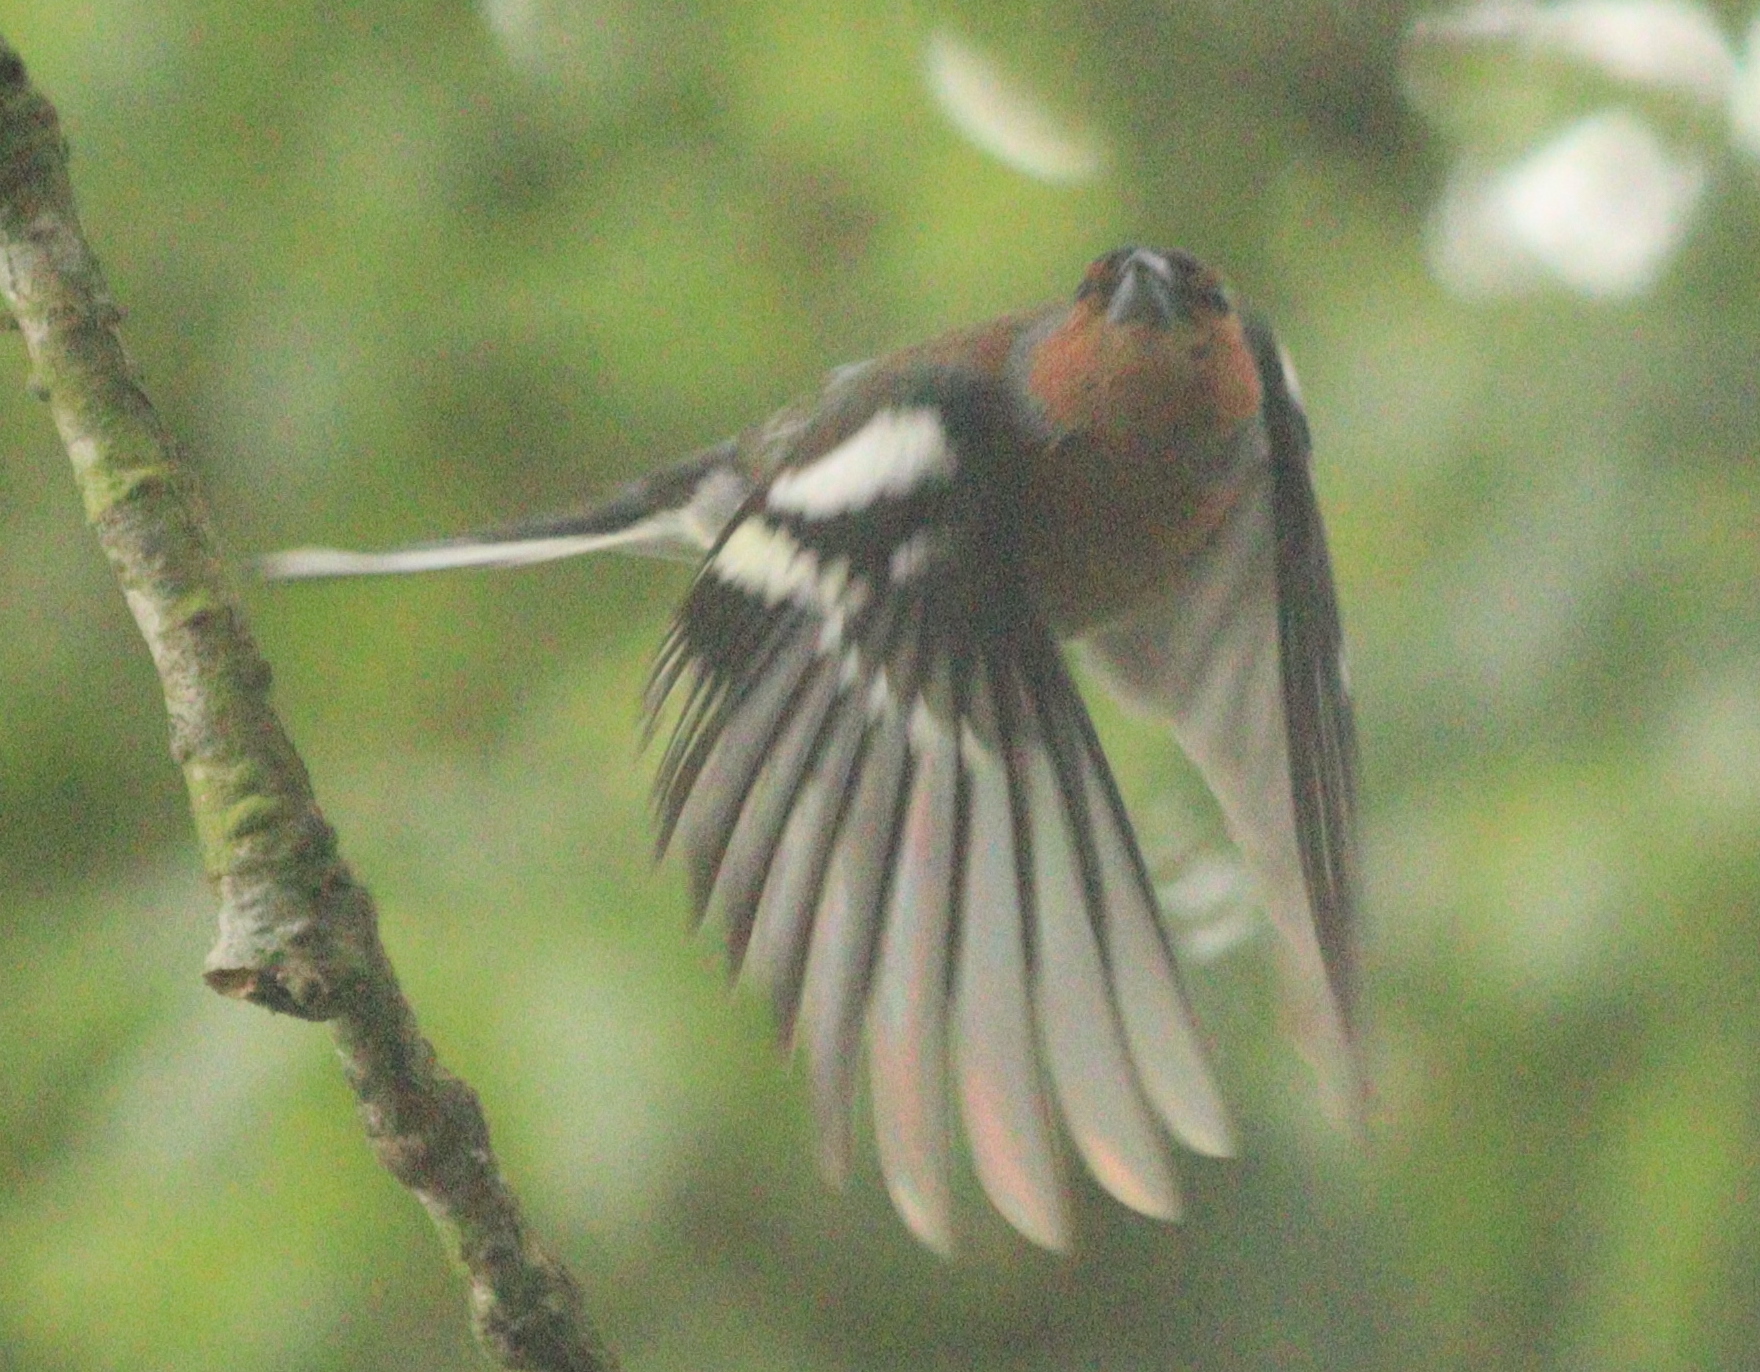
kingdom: Animalia
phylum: Chordata
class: Aves
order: Passeriformes
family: Fringillidae
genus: Fringilla
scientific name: Fringilla coelebs
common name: Common chaffinch
